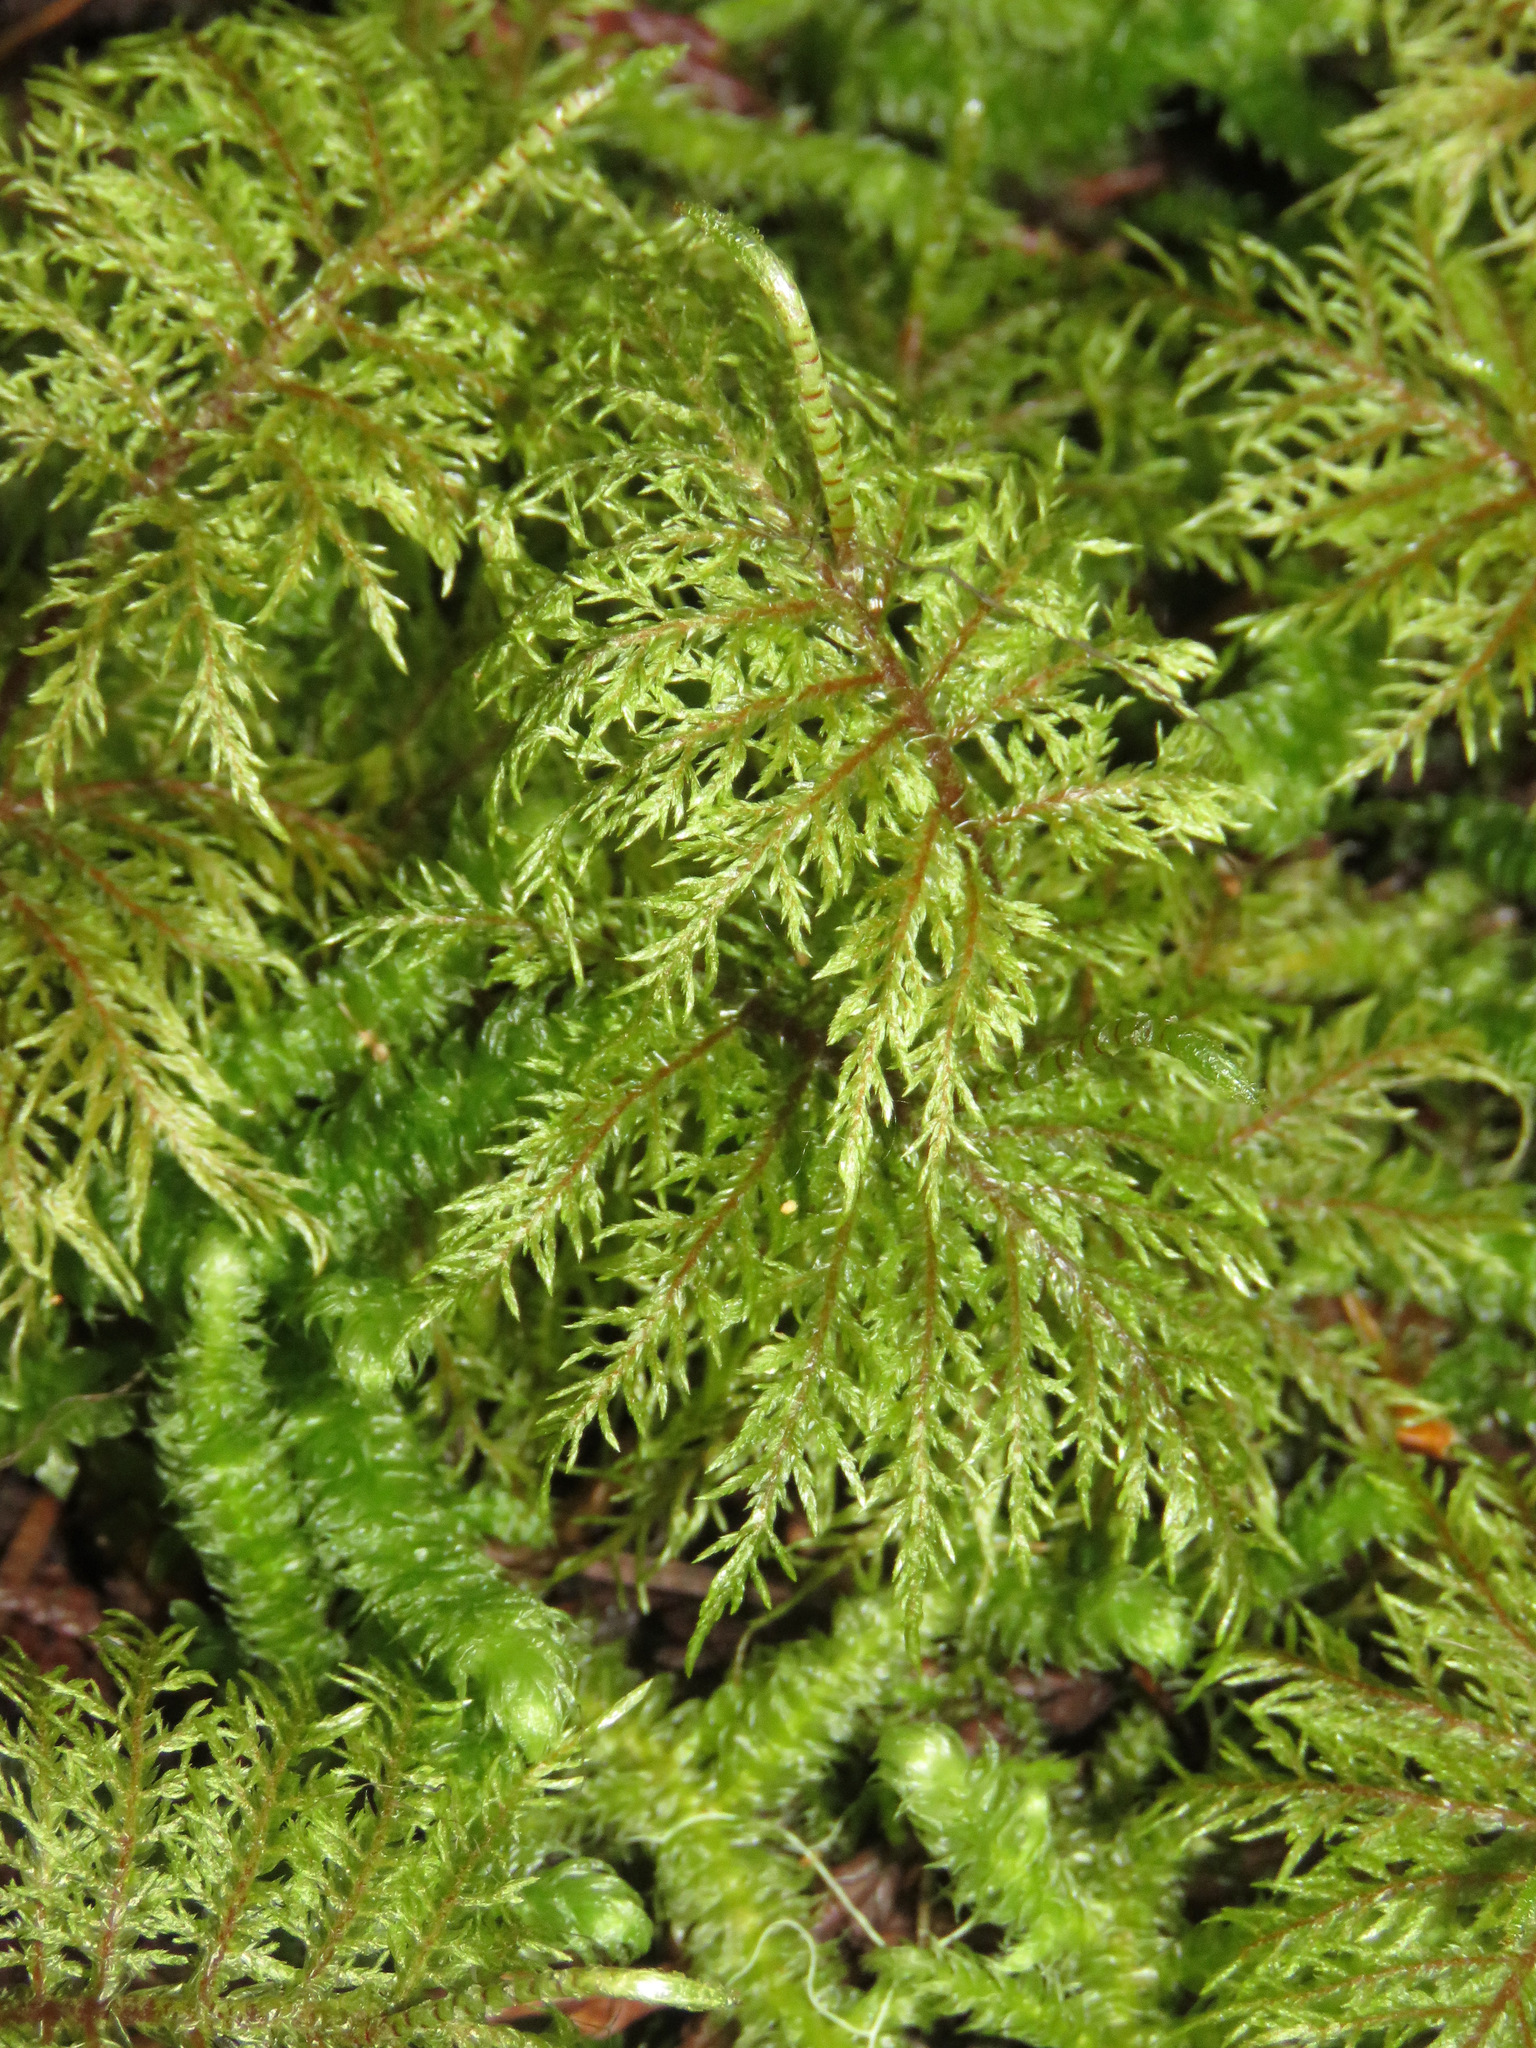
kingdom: Plantae
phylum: Bryophyta
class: Bryopsida
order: Hypnales
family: Hylocomiaceae
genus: Hylocomium
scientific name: Hylocomium splendens
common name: Stairstep moss
